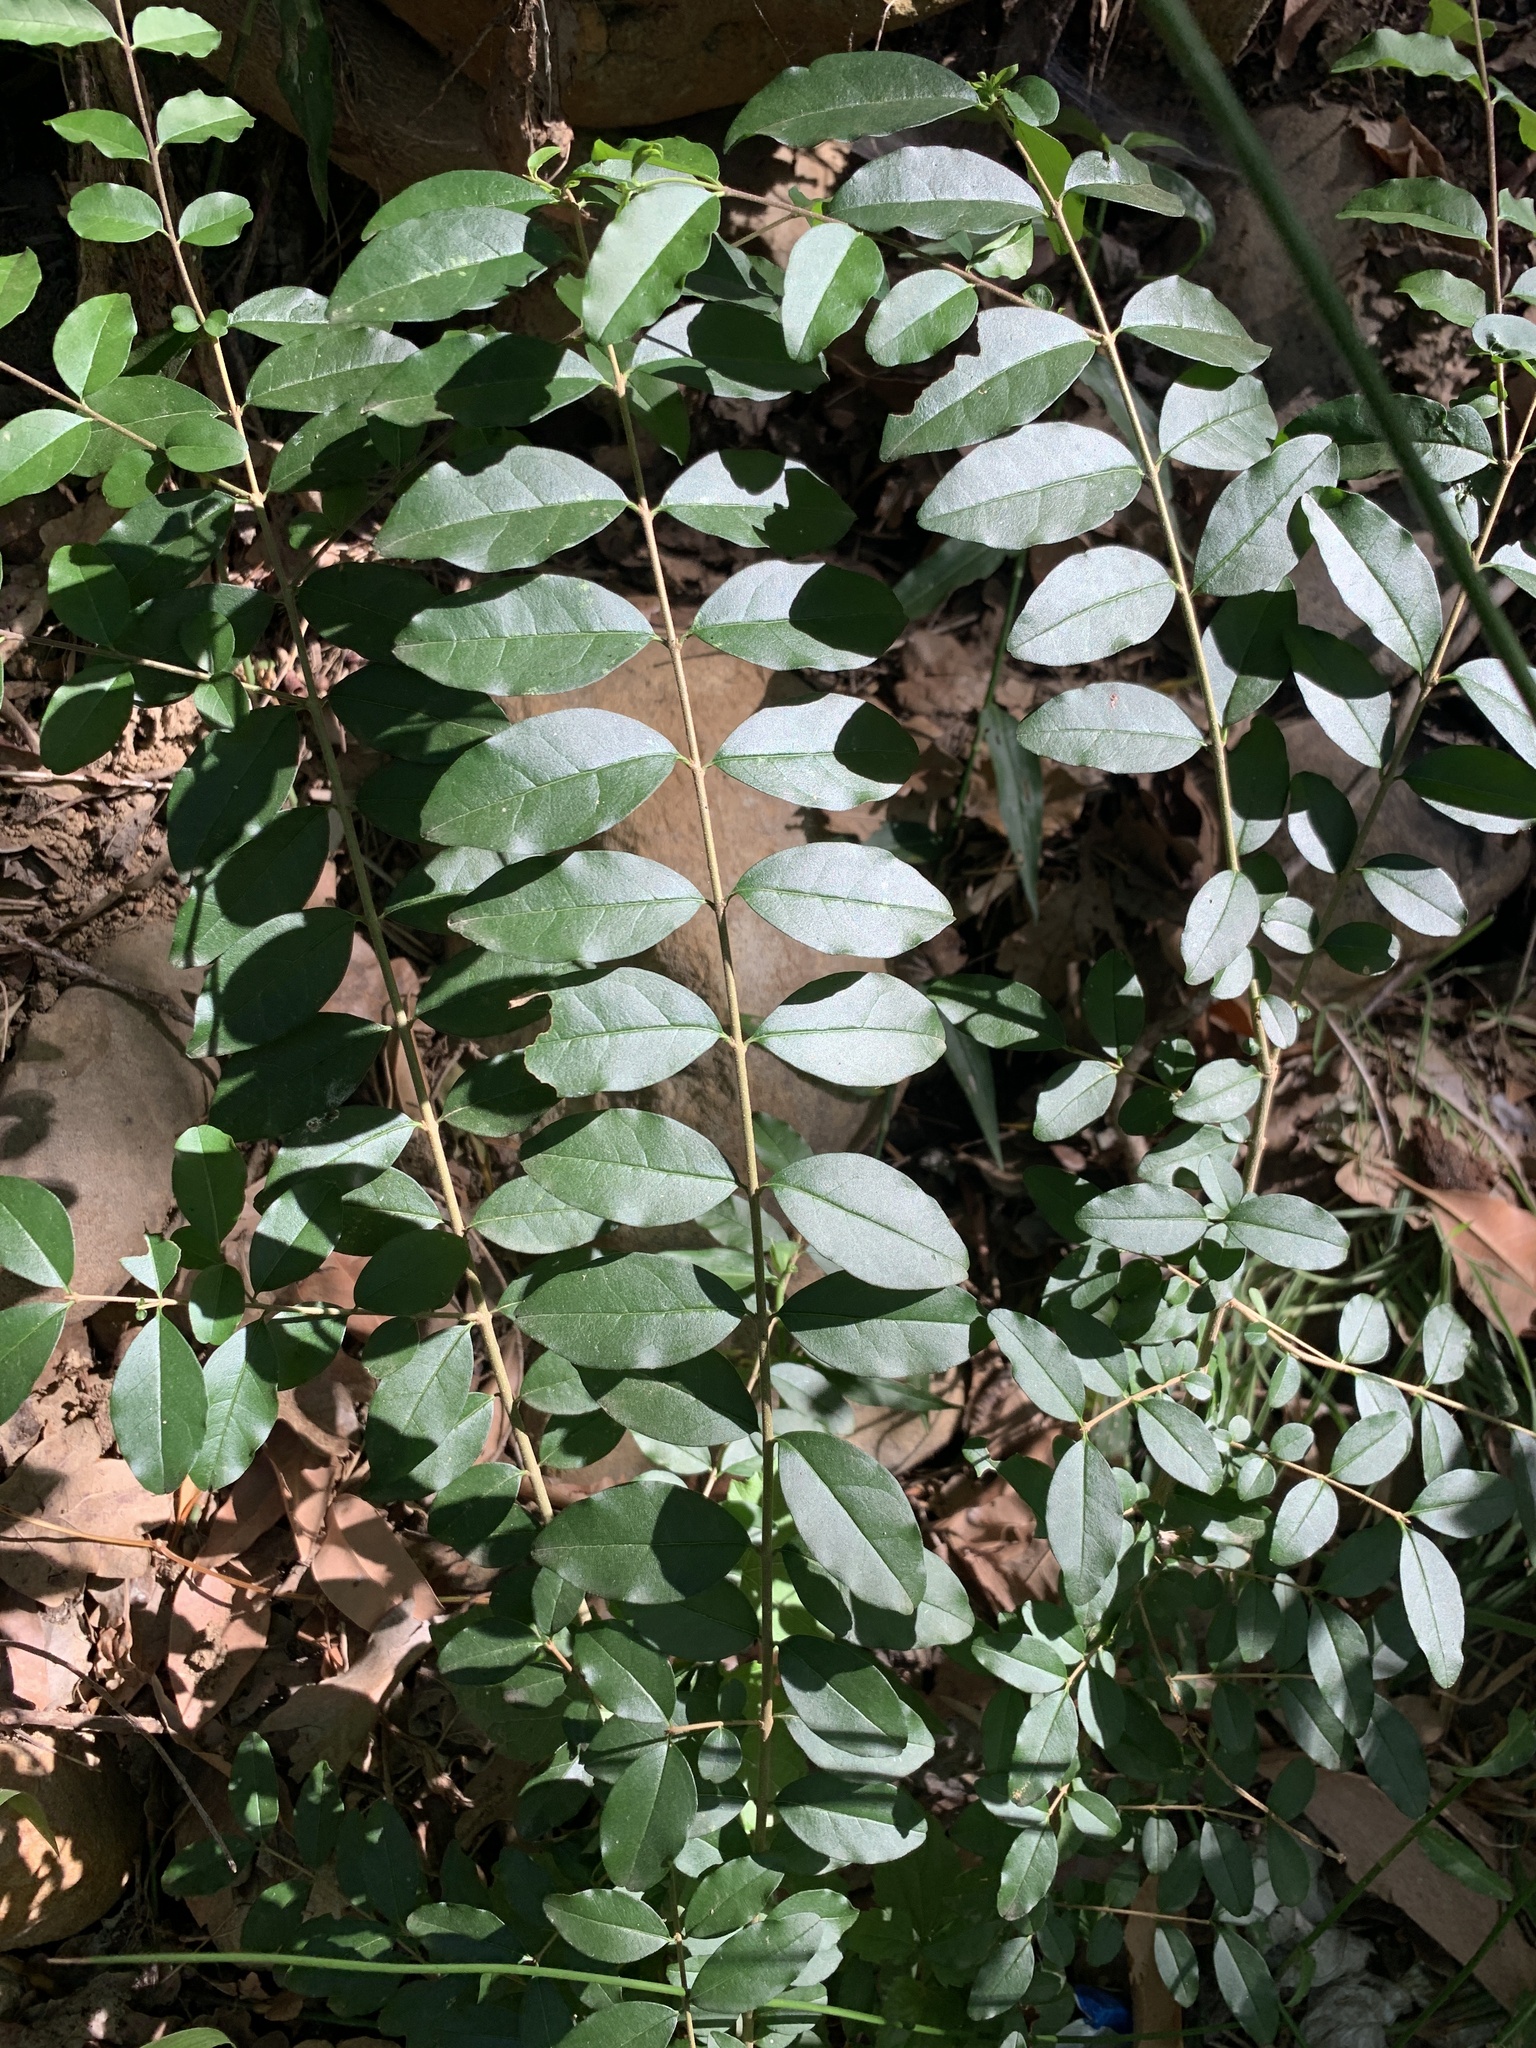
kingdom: Plantae
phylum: Tracheophyta
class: Magnoliopsida
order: Lamiales
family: Oleaceae
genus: Ligustrum
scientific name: Ligustrum sinense
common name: Chinese privet
